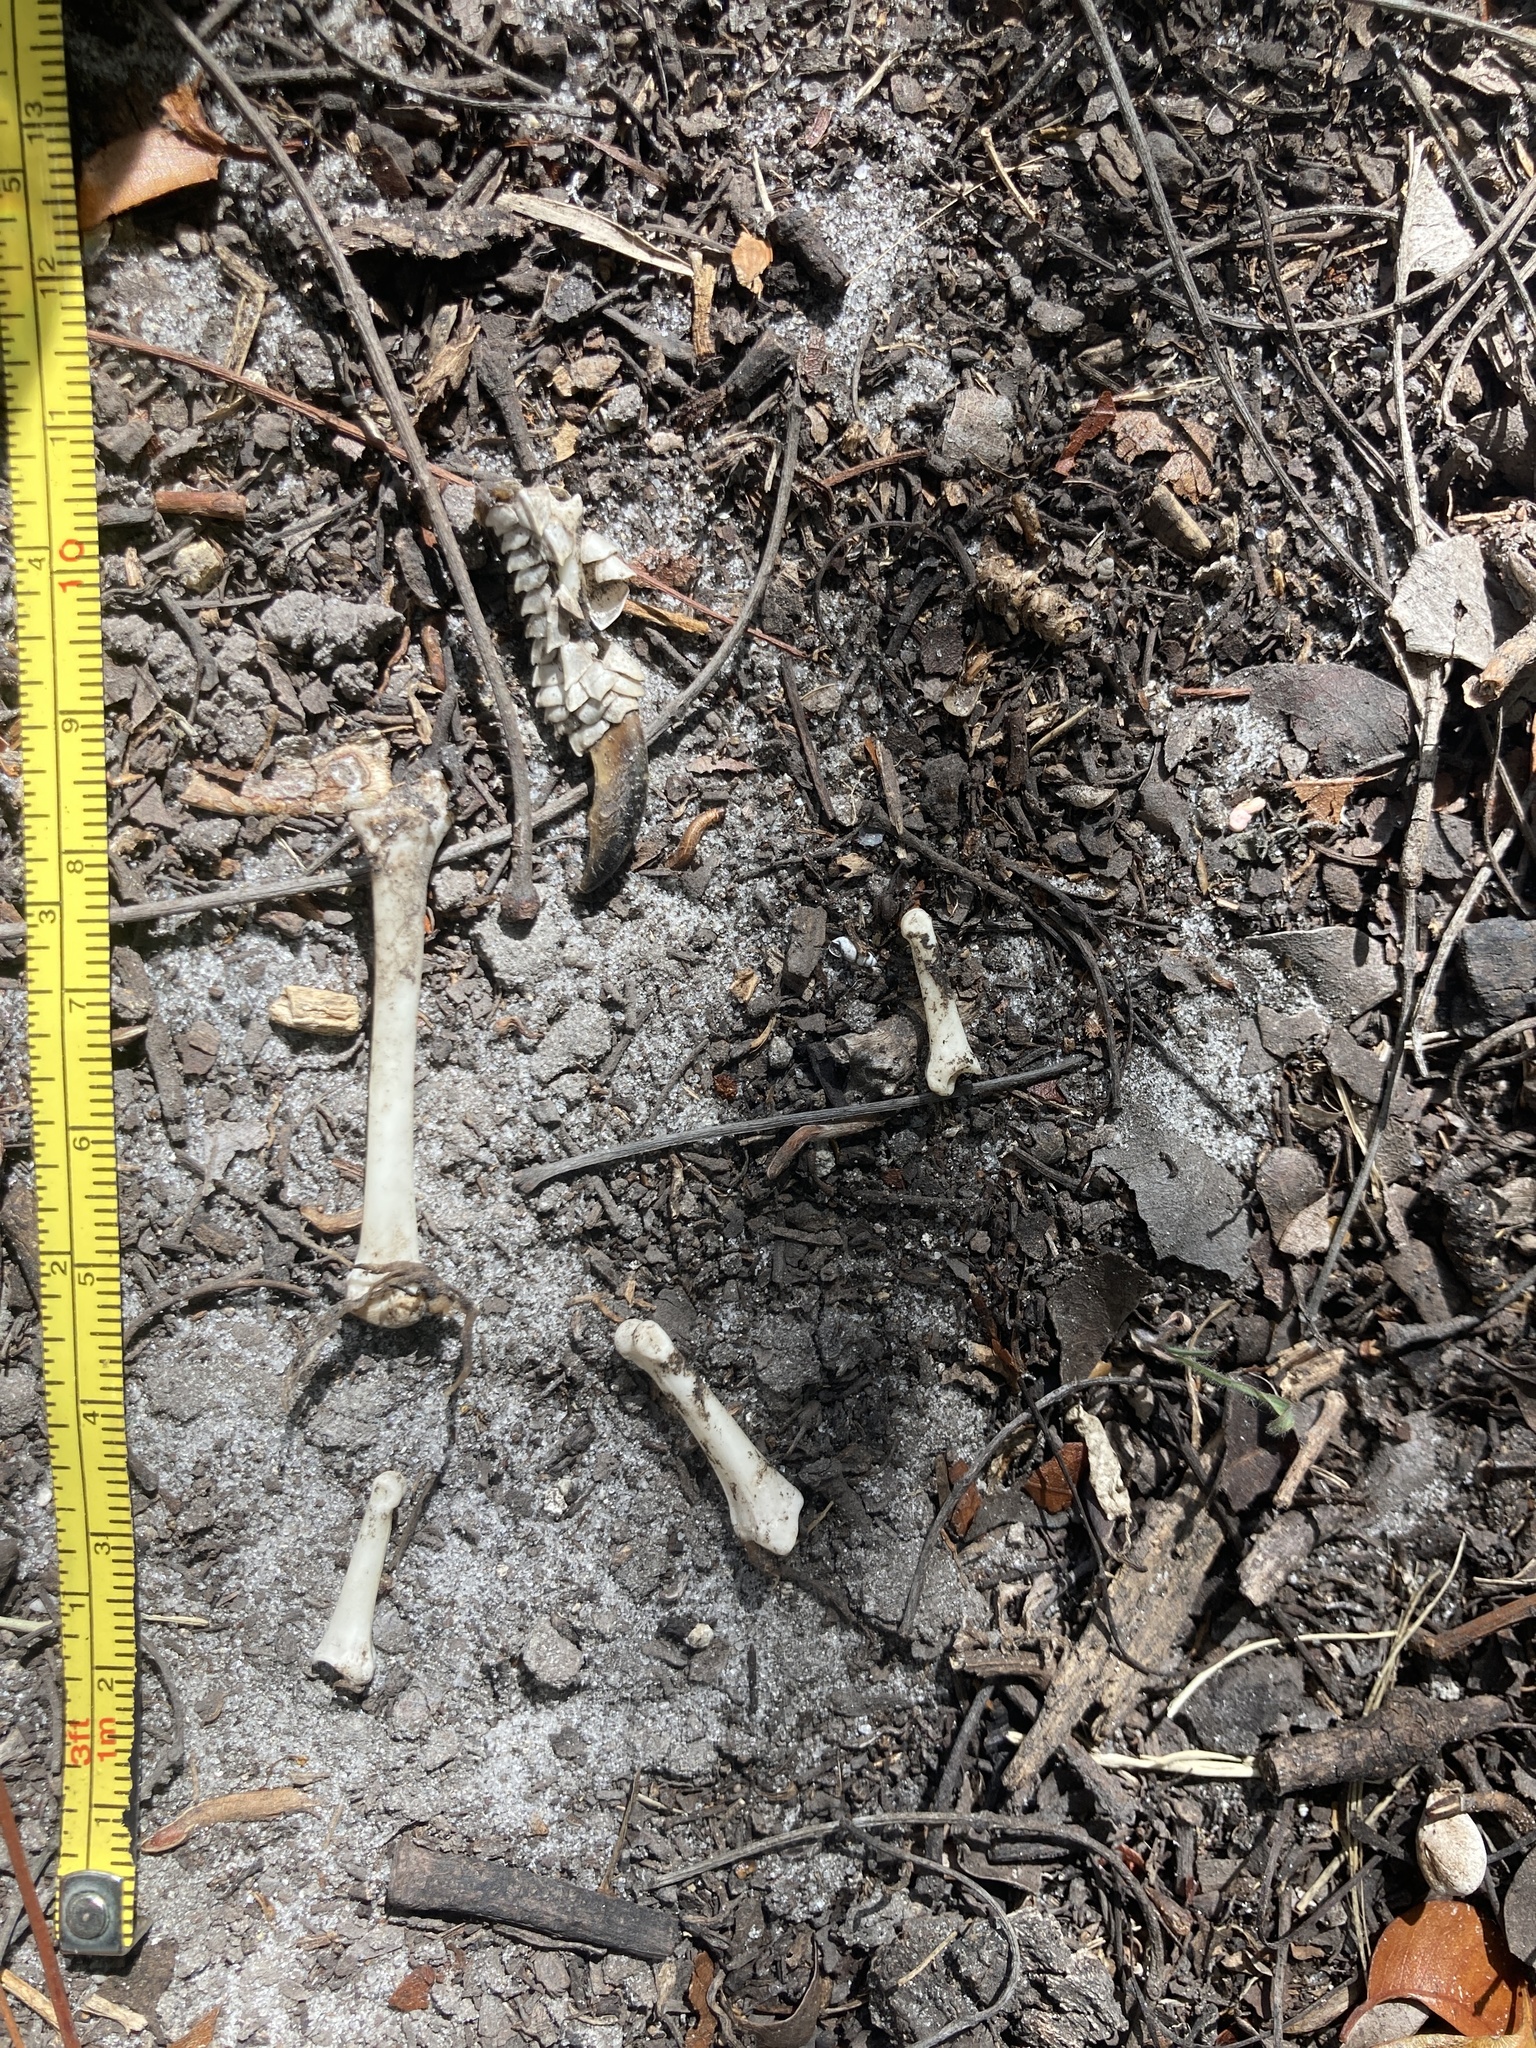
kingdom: Animalia
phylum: Chordata
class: Squamata
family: Iguanidae
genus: Iguana
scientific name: Iguana iguana
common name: Green iguana
